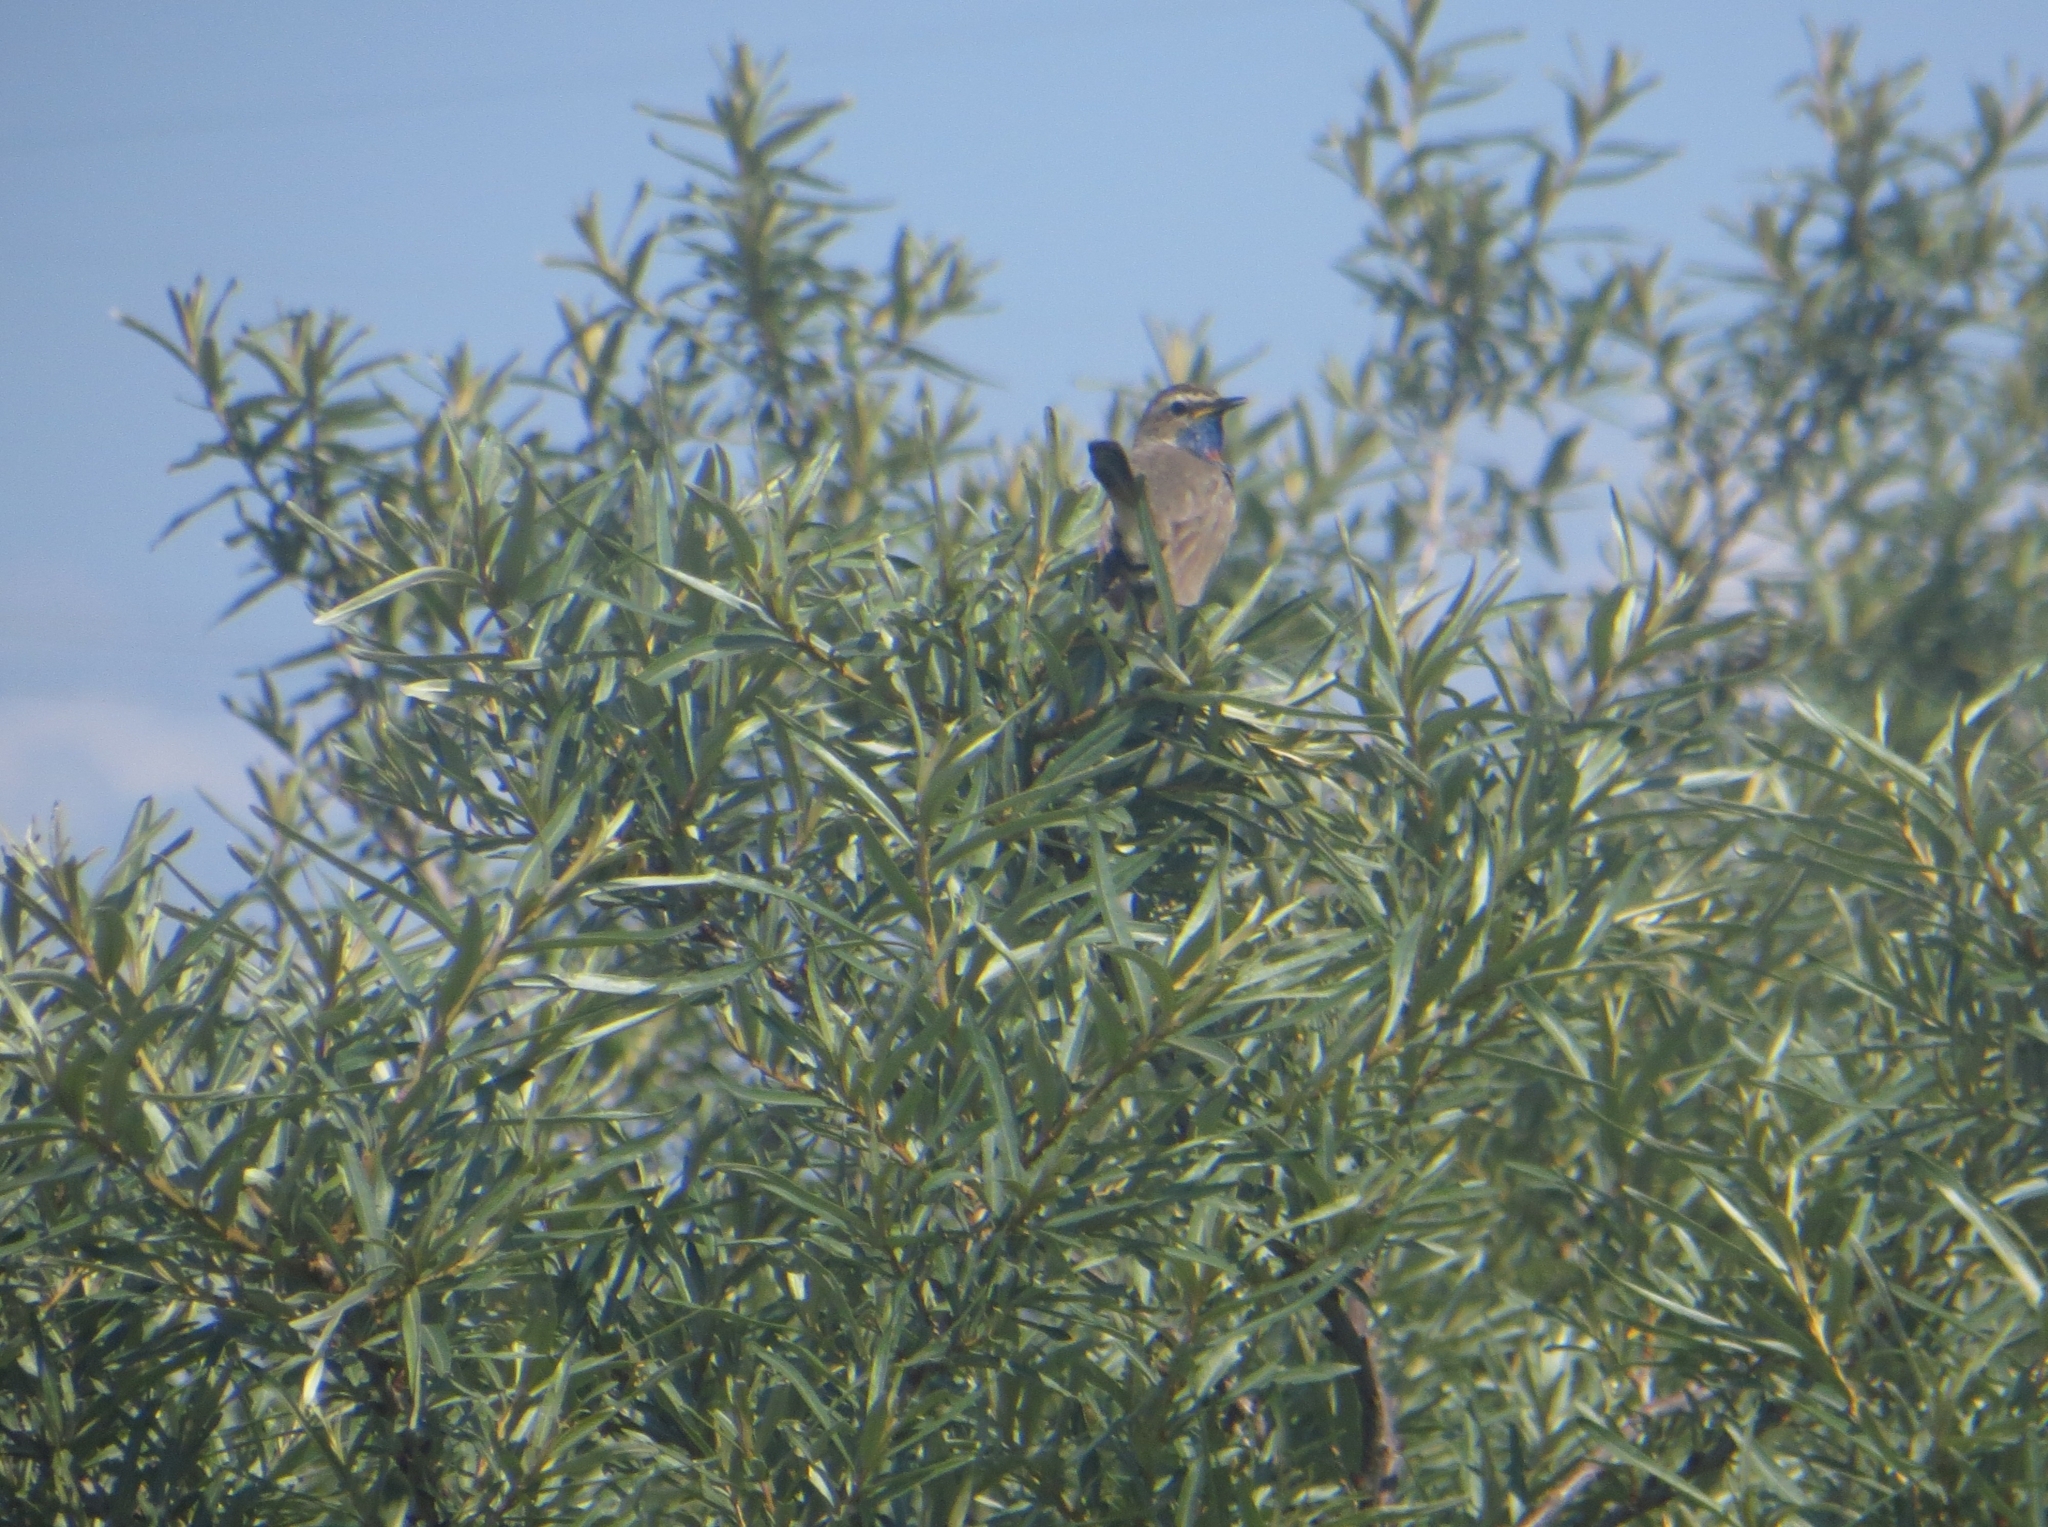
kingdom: Animalia
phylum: Chordata
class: Aves
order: Passeriformes
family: Muscicapidae
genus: Luscinia
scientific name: Luscinia svecica
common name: Bluethroat
